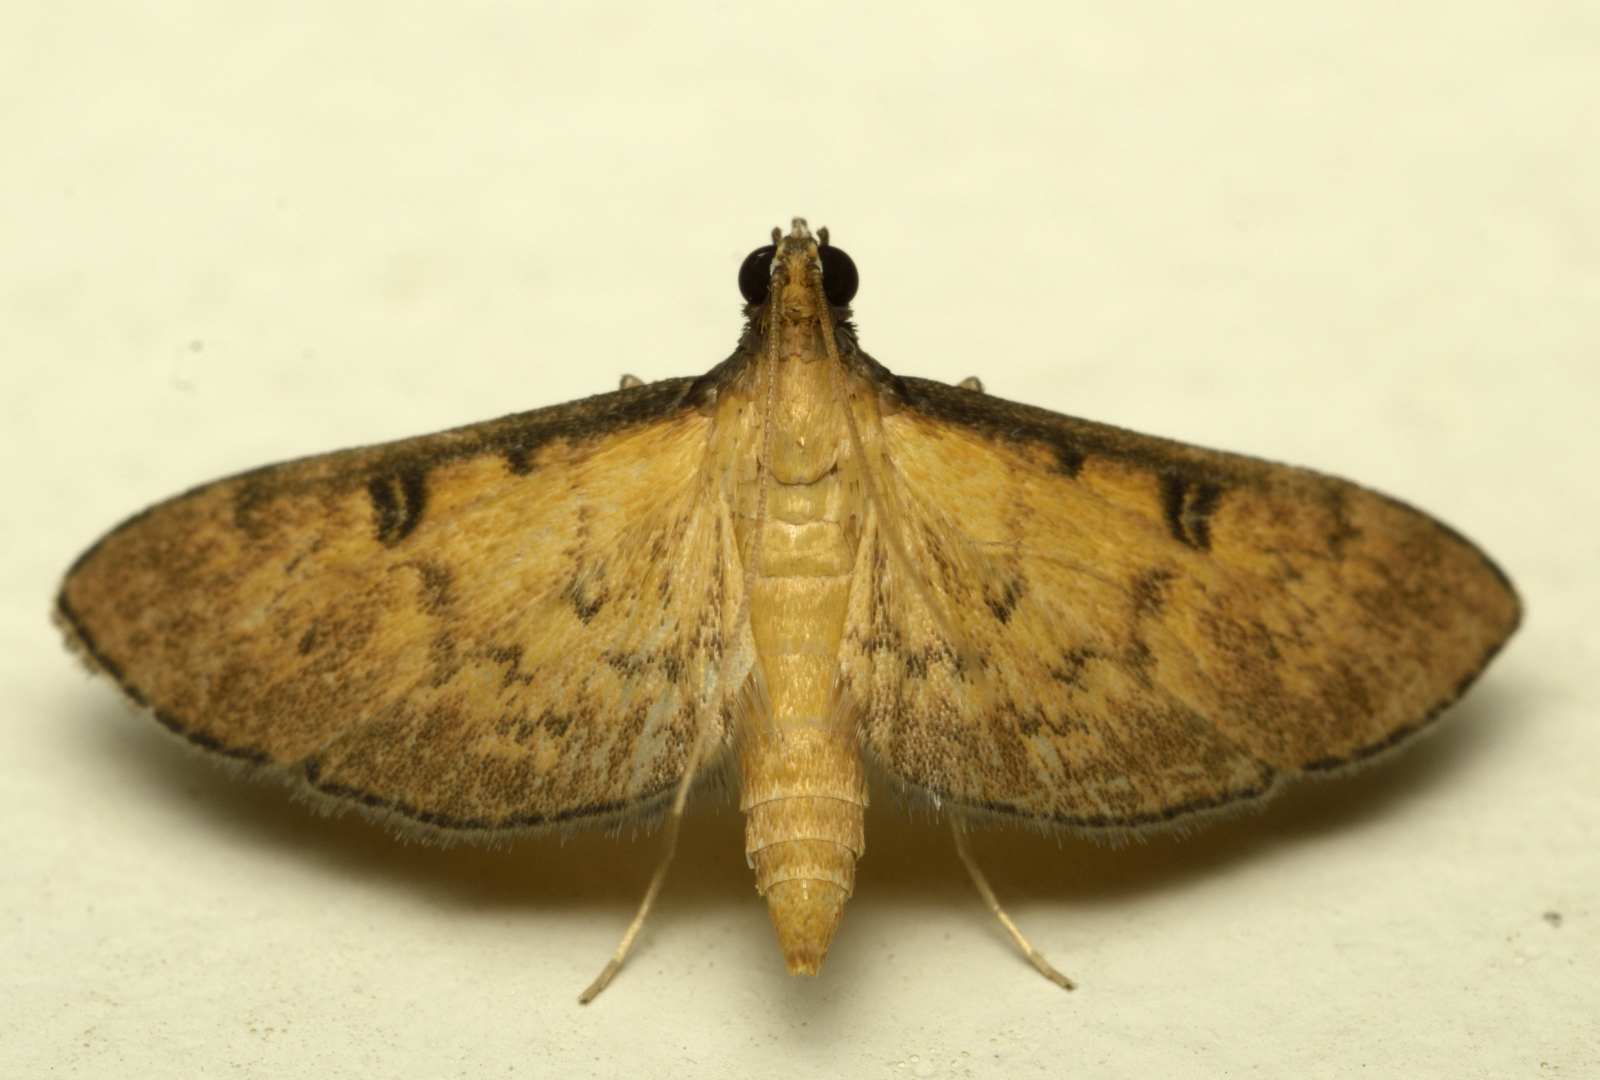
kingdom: Animalia
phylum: Arthropoda
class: Insecta
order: Lepidoptera
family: Crambidae
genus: Tatobotys
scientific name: Tatobotys biannulalis
